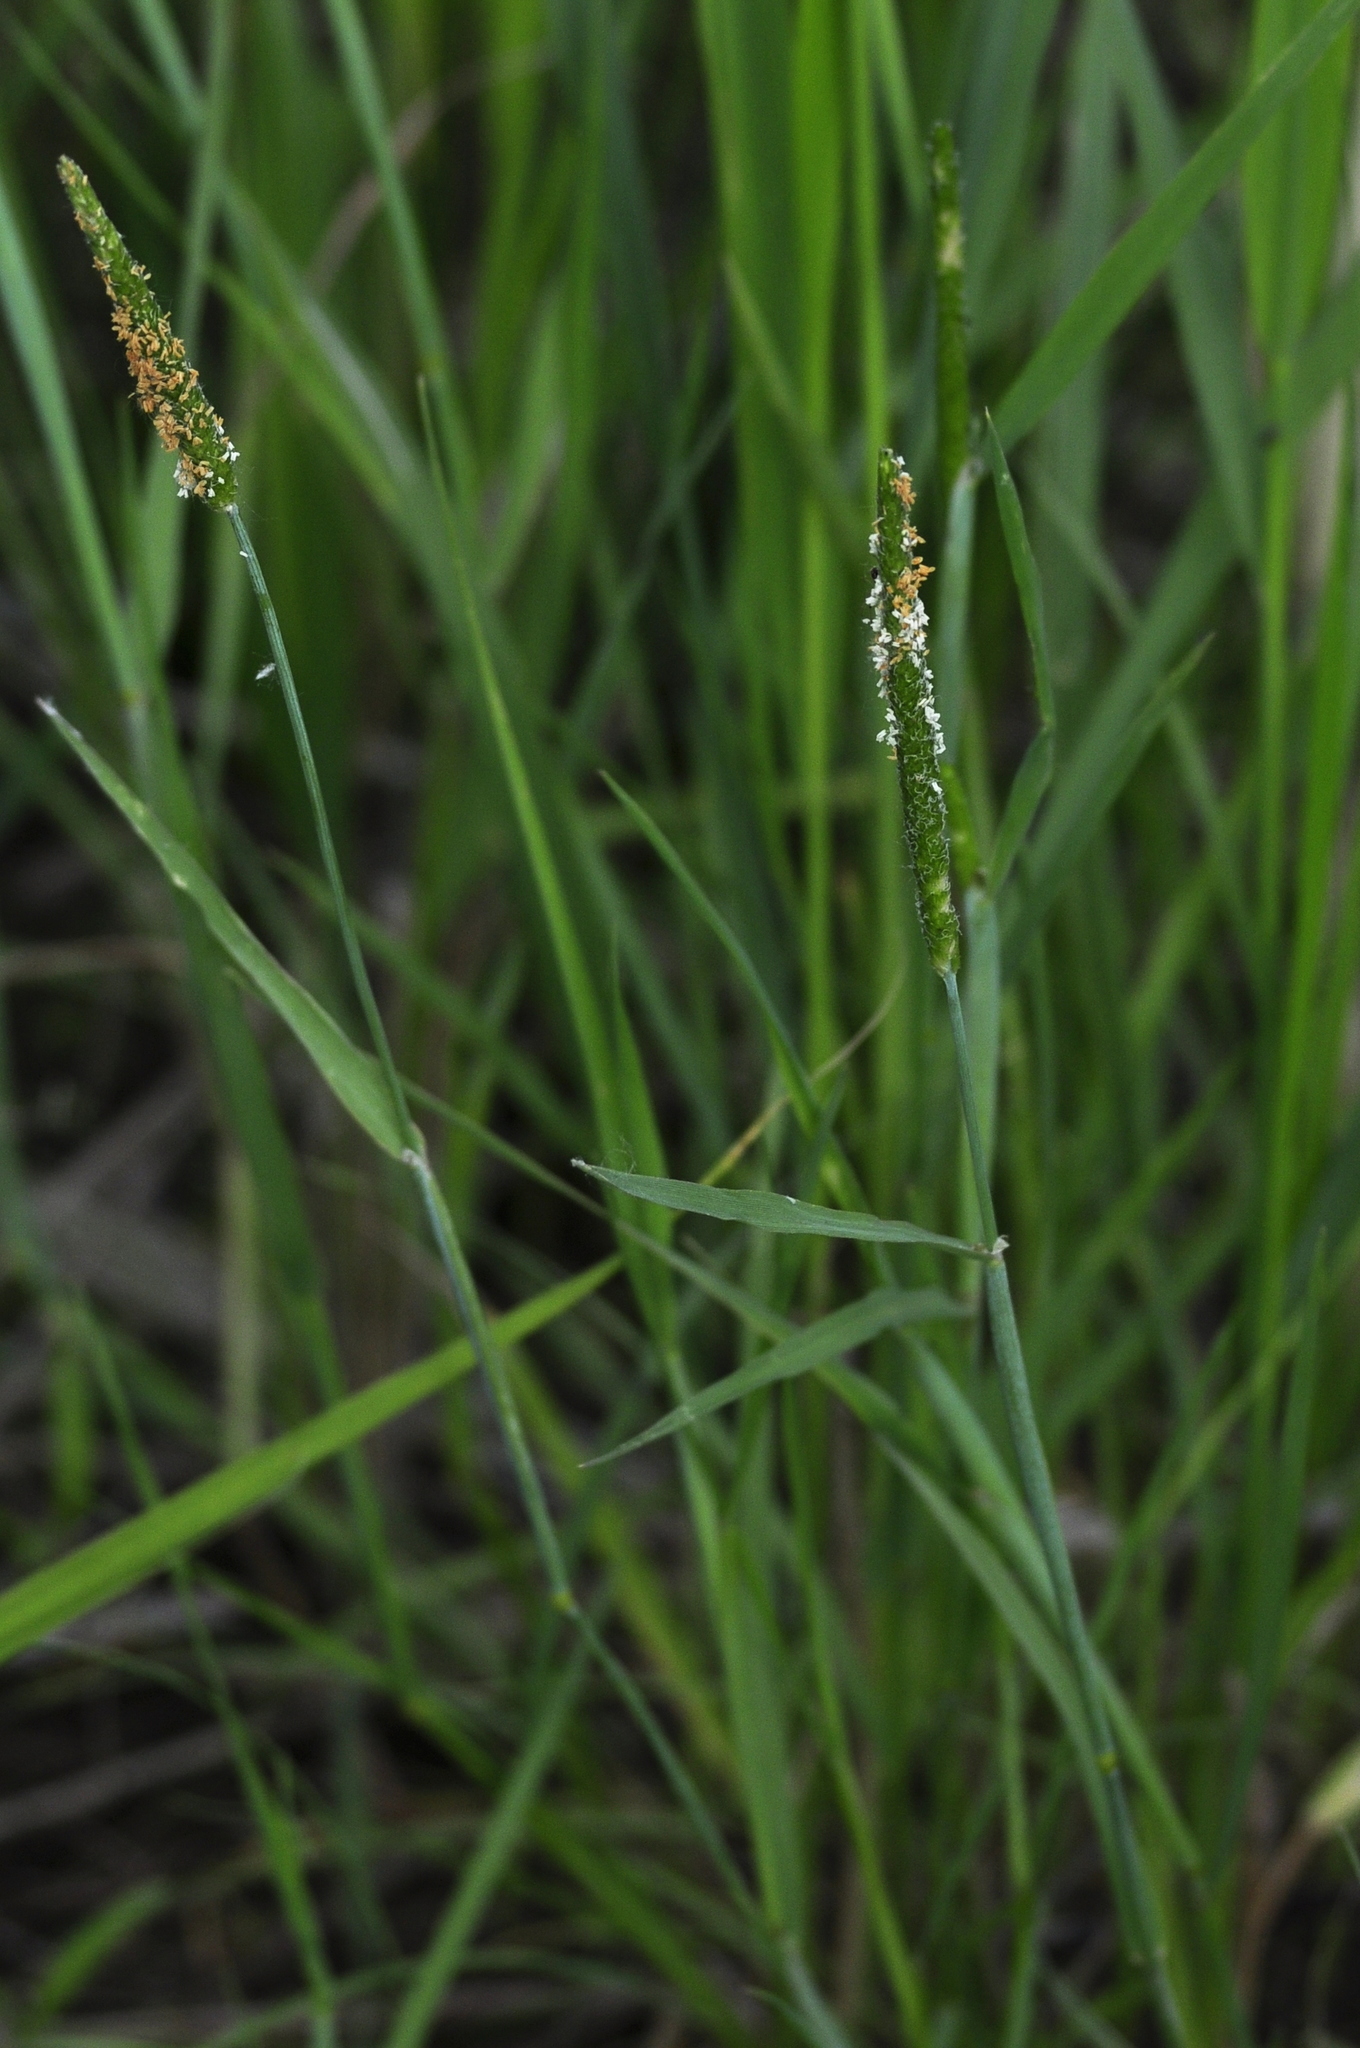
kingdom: Plantae
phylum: Tracheophyta
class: Liliopsida
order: Poales
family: Poaceae
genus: Alopecurus
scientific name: Alopecurus aequalis
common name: Orange foxtail
